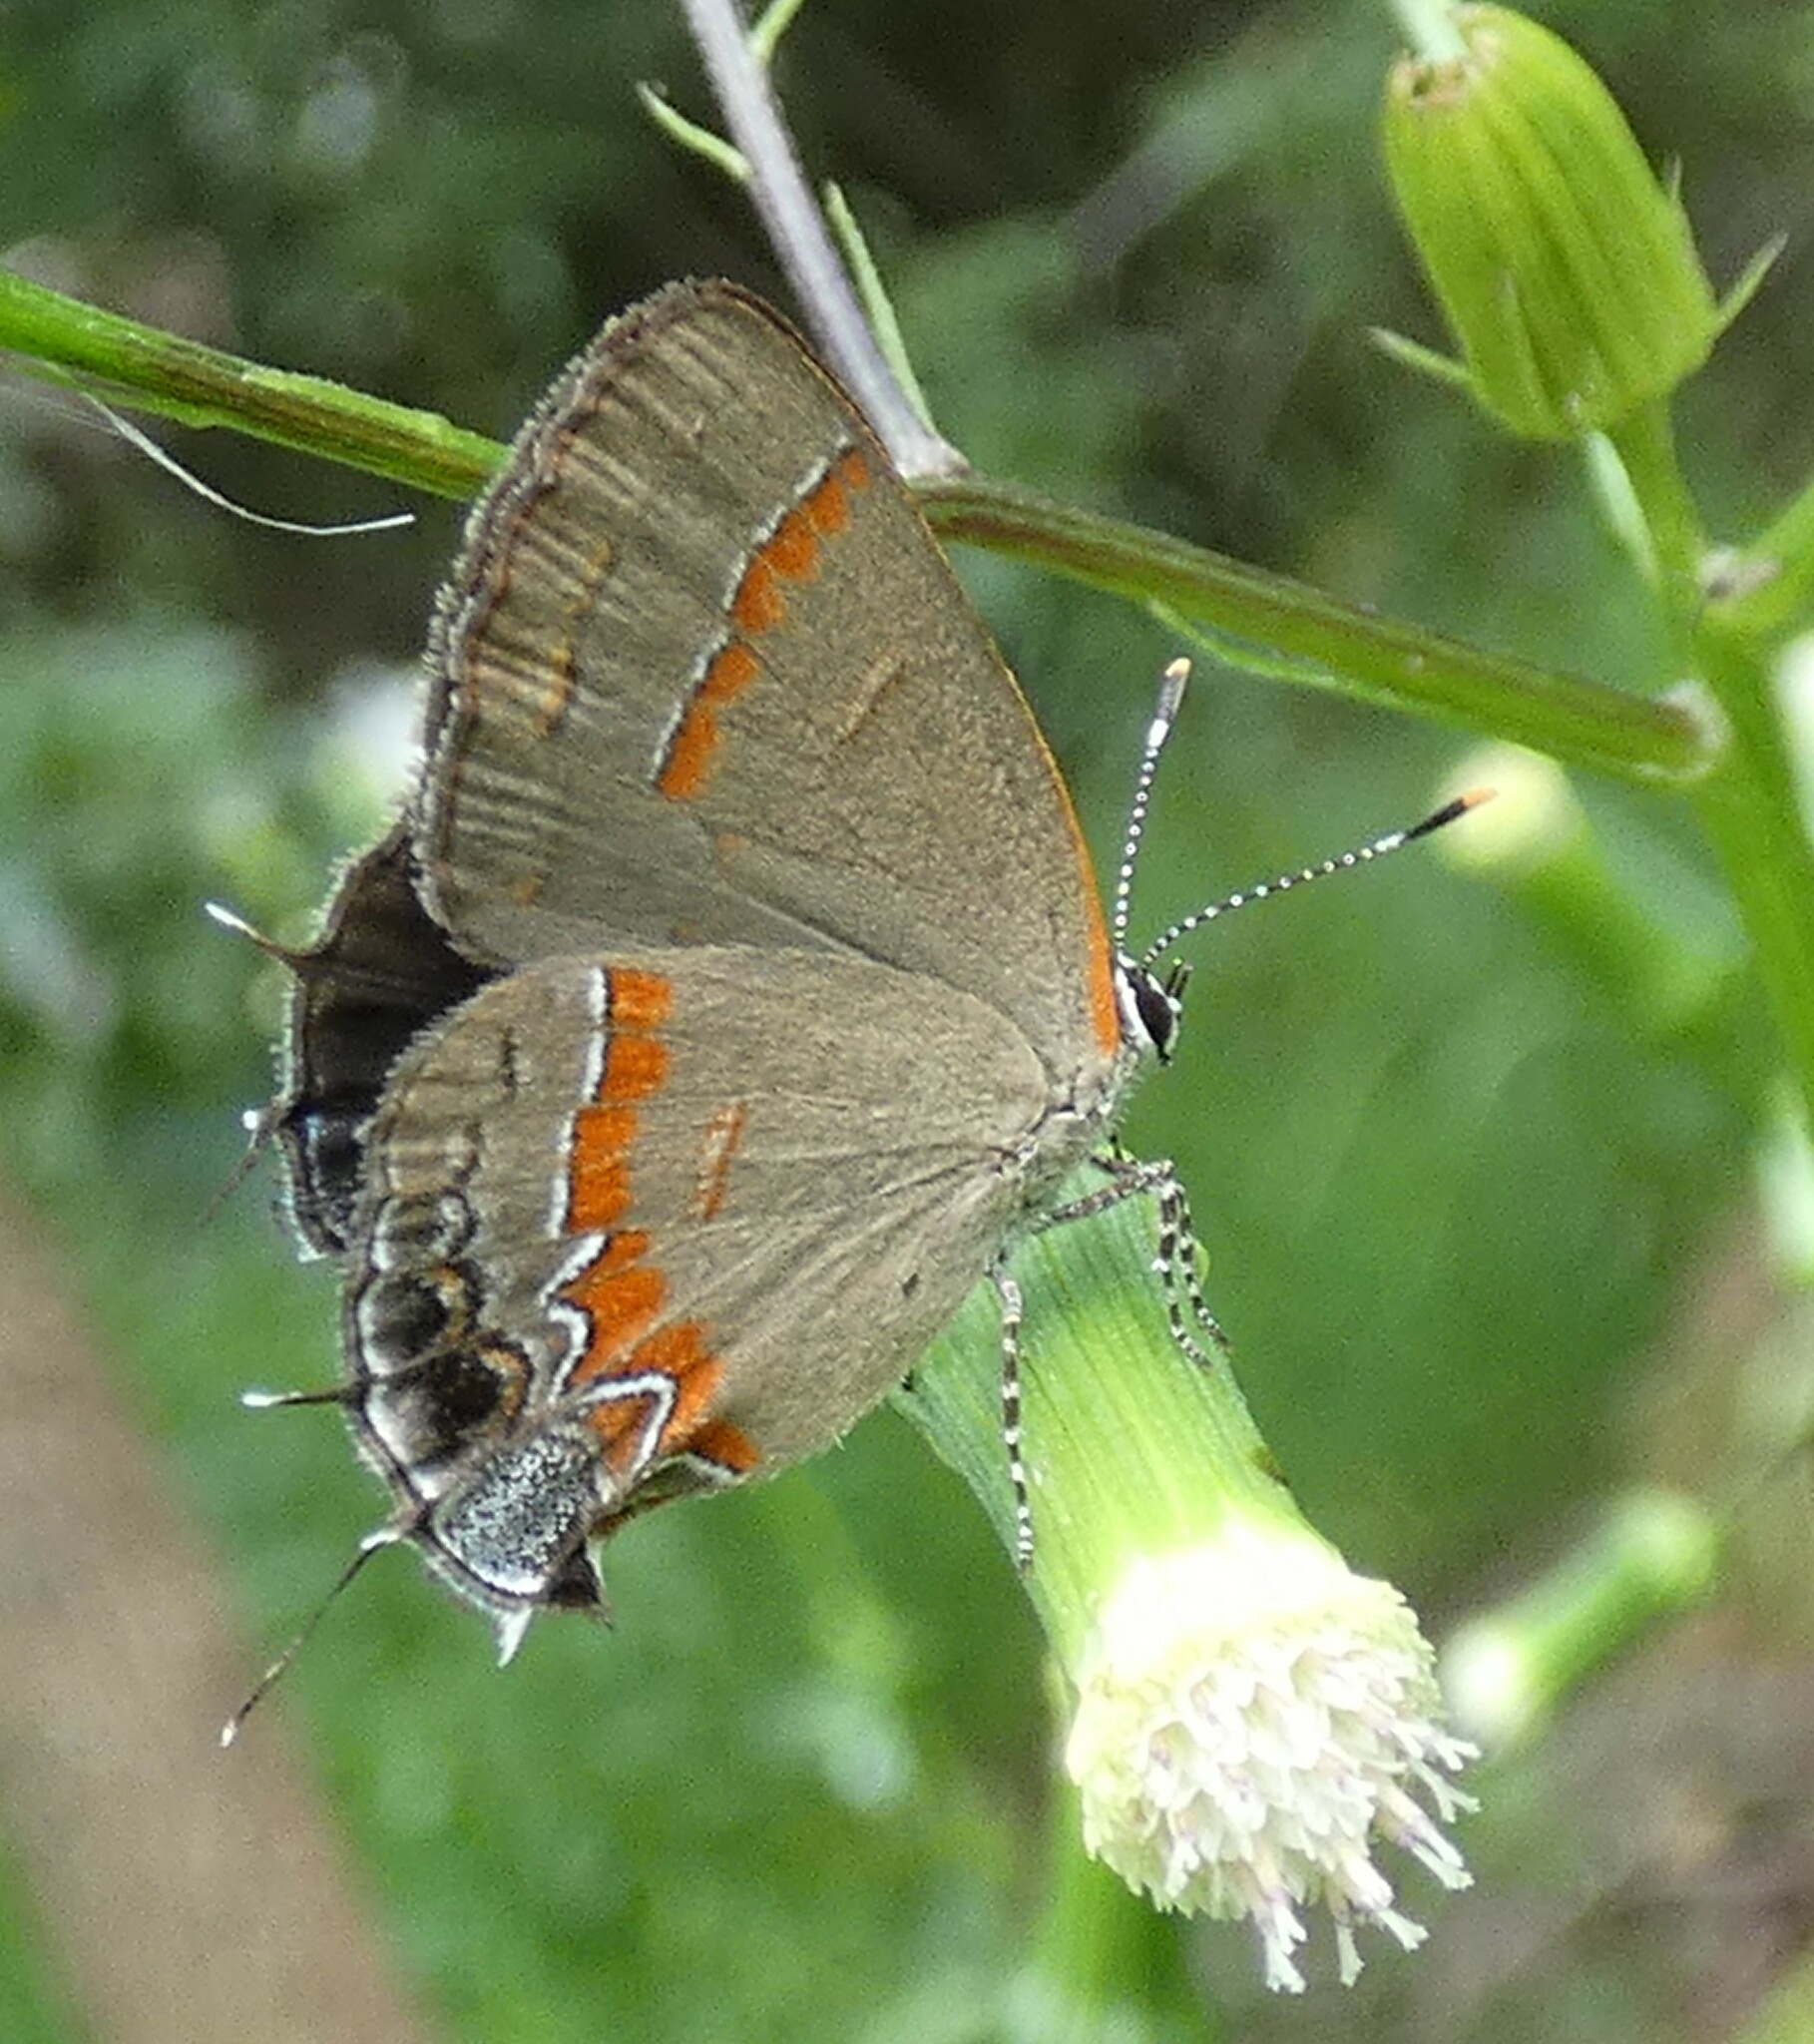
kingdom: Animalia
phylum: Arthropoda
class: Insecta
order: Lepidoptera
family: Lycaenidae
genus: Calycopis
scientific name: Calycopis cecrops
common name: Red-banded hairstreak
